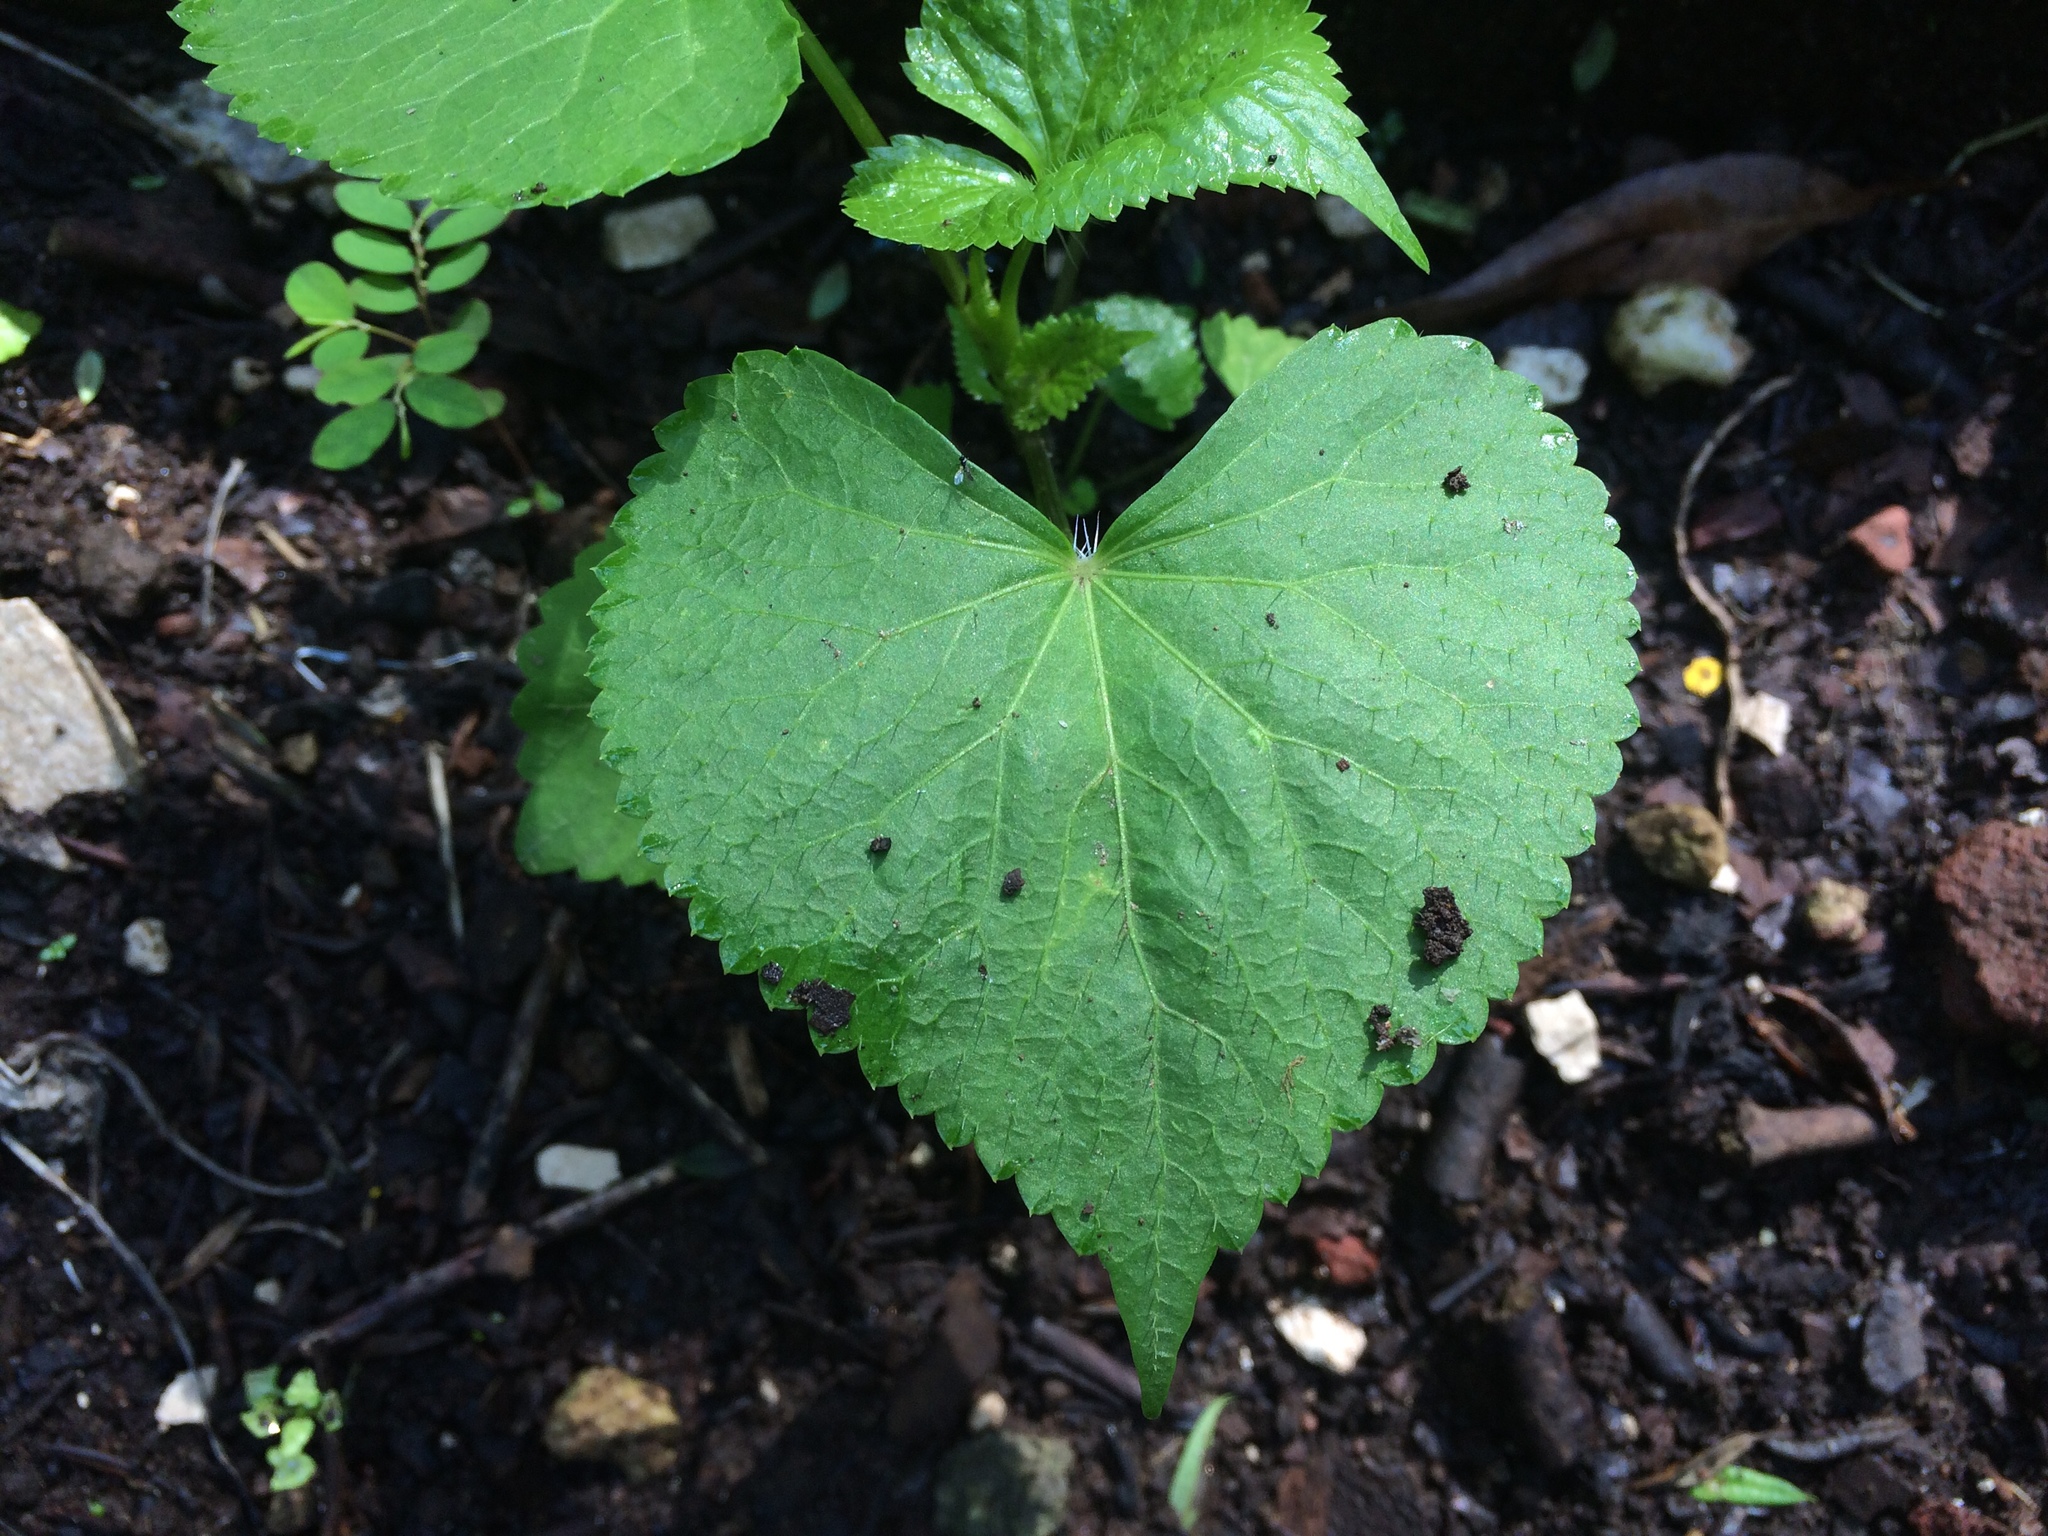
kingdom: Plantae
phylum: Tracheophyta
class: Magnoliopsida
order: Apiales
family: Apiaceae
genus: Spananthe
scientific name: Spananthe paniculata
